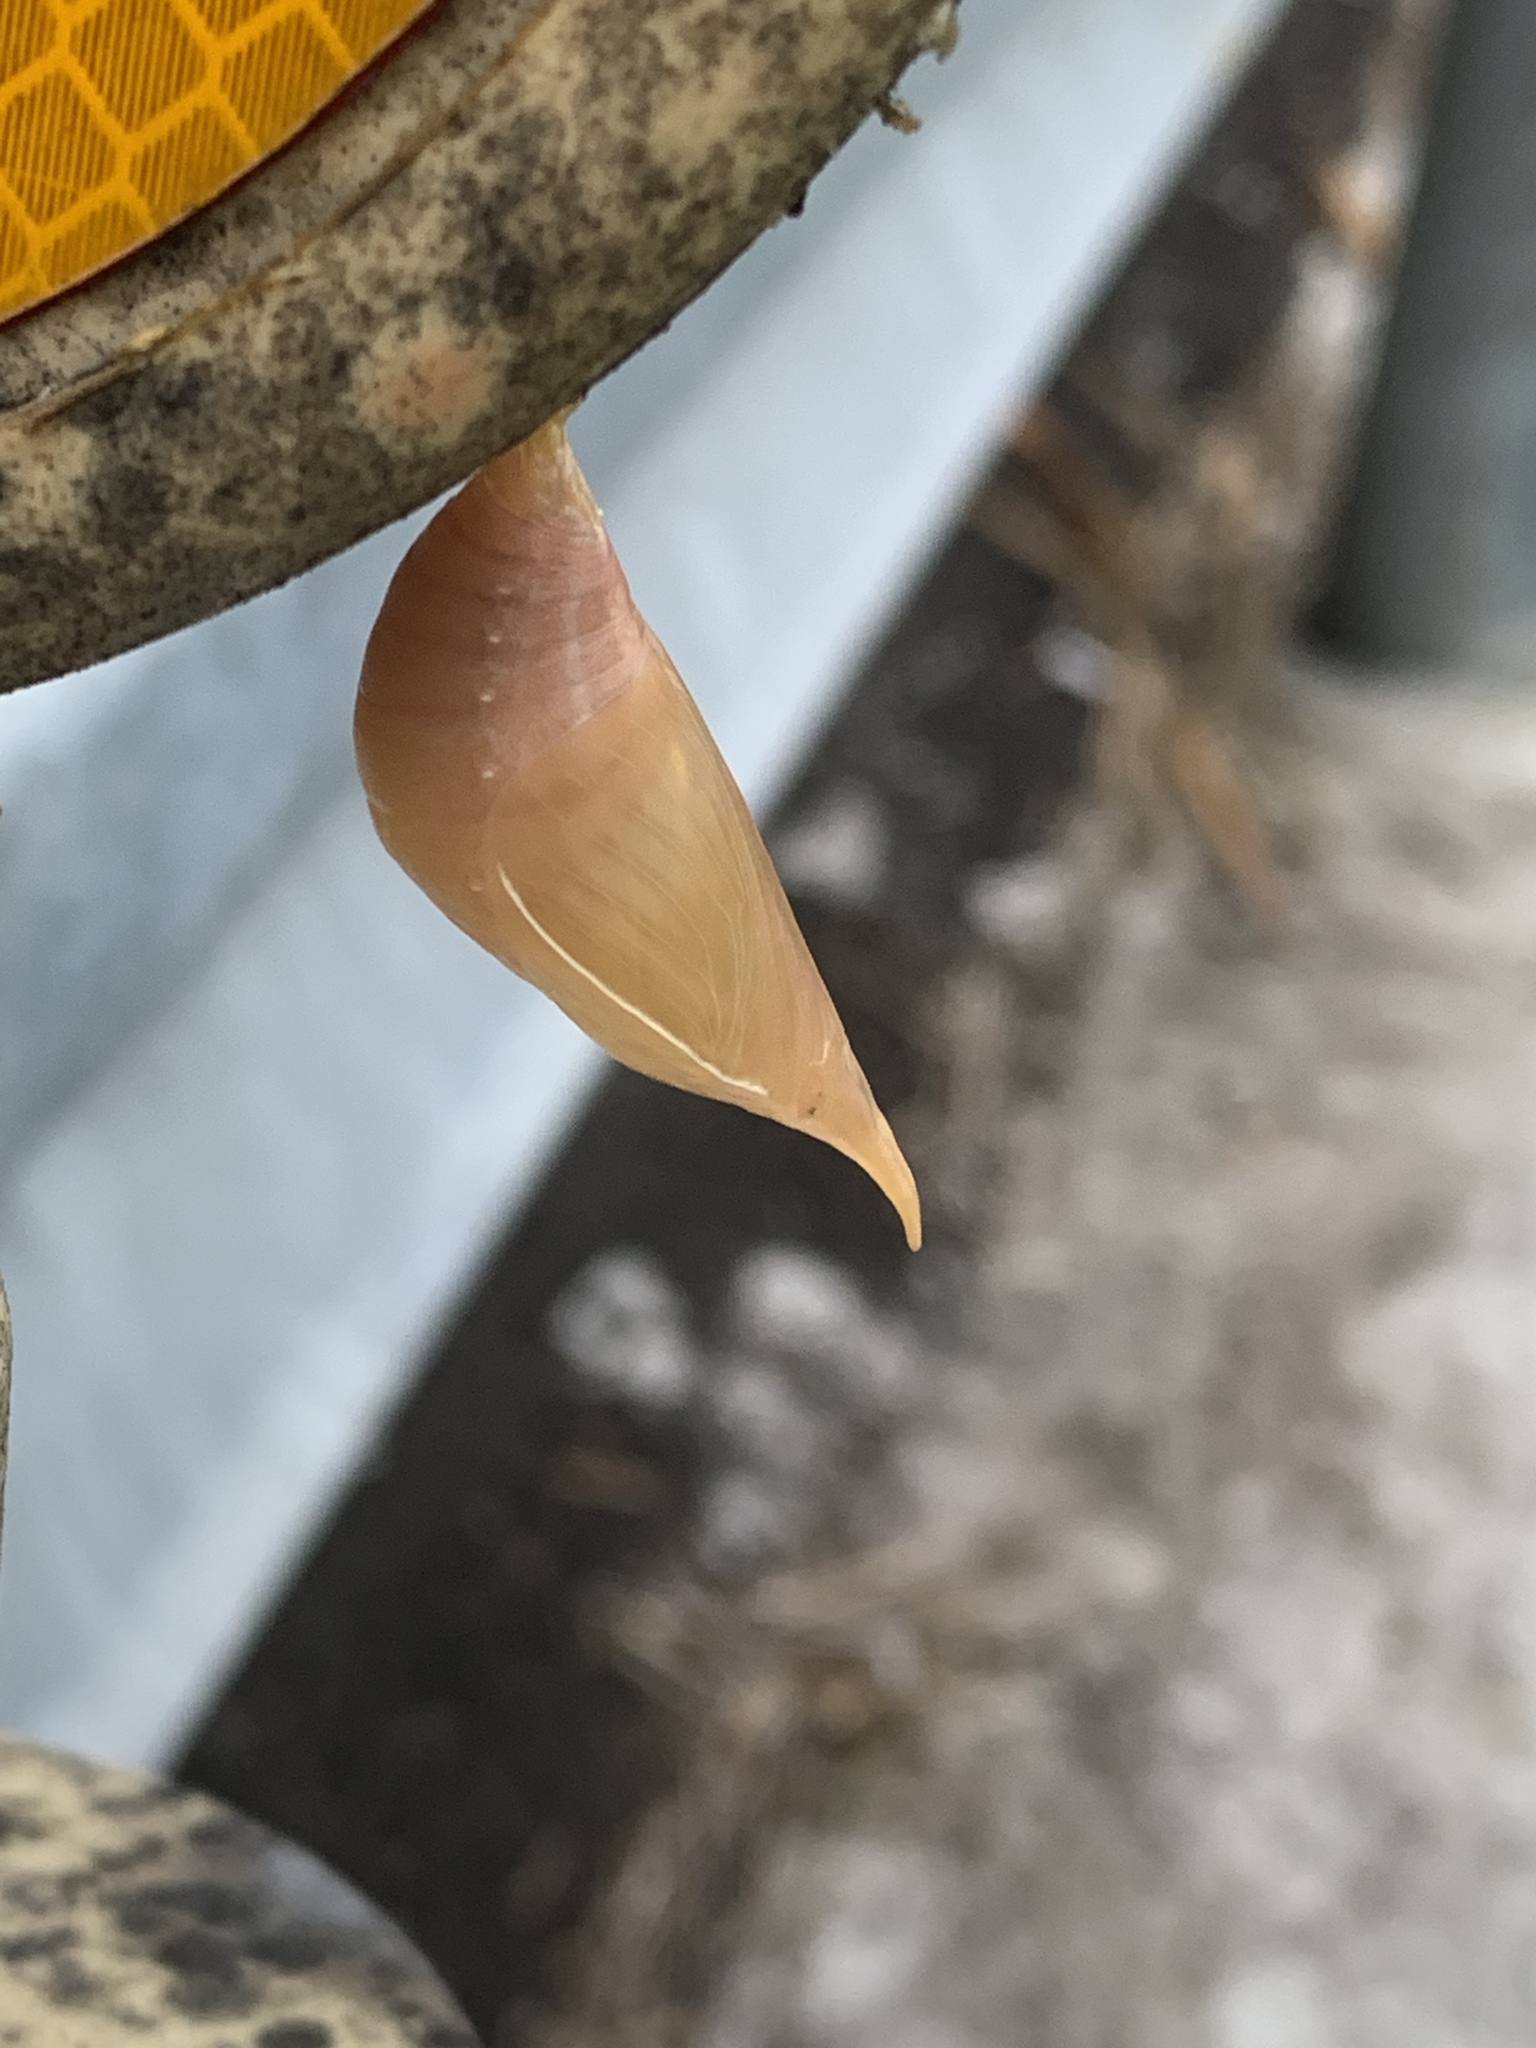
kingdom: Animalia
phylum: Arthropoda
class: Insecta
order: Lepidoptera
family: Nymphalidae
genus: Discophora
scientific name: Discophora sondaica
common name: Common duffer
